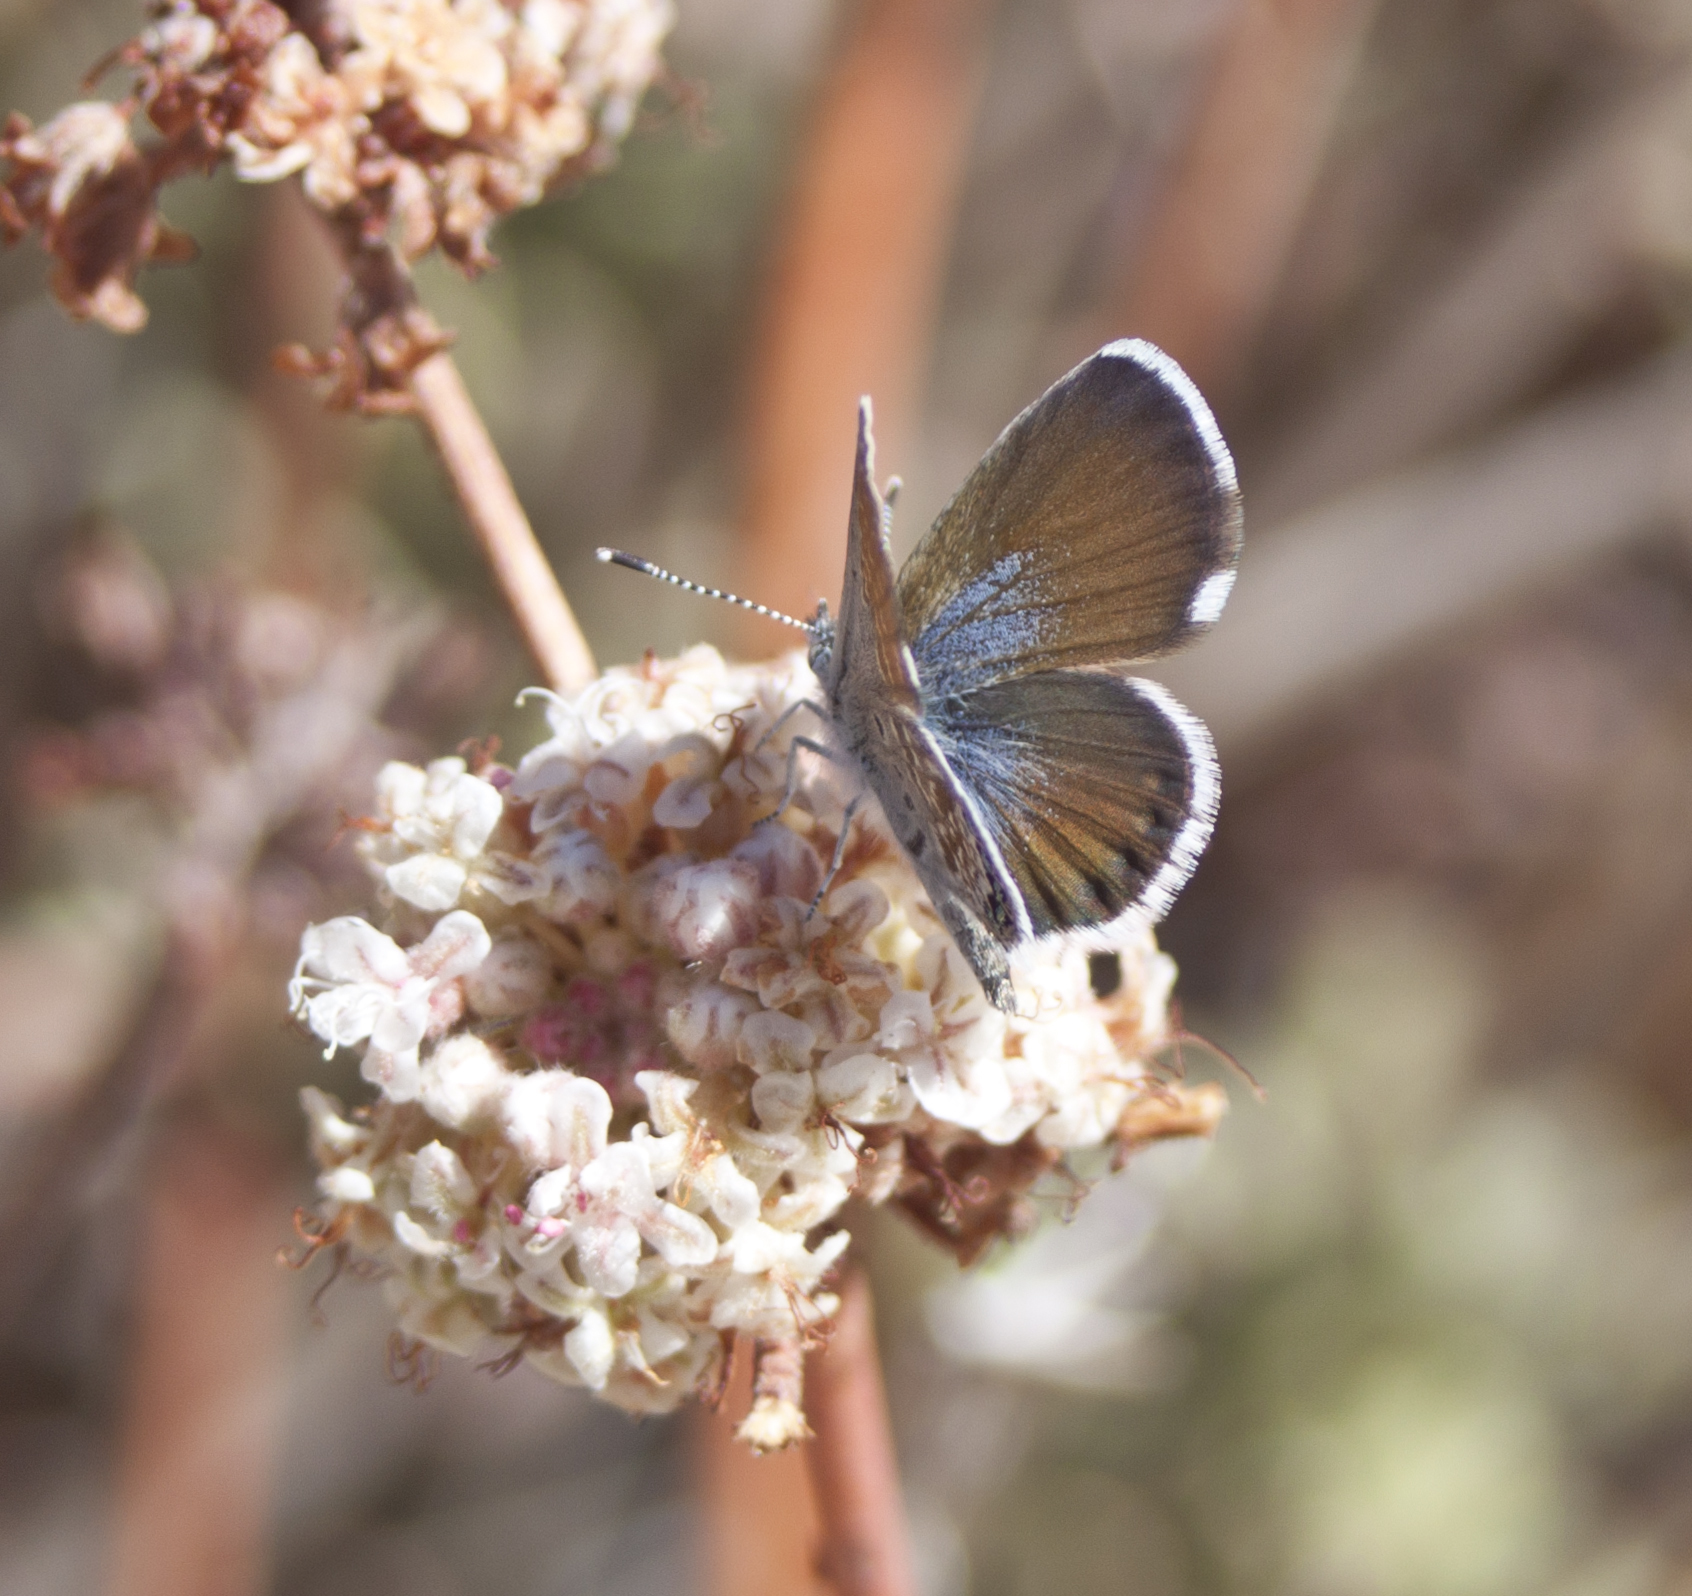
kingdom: Animalia
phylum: Arthropoda
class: Insecta
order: Lepidoptera
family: Lycaenidae
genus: Brephidium
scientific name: Brephidium exilis
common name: Pygmy blue
